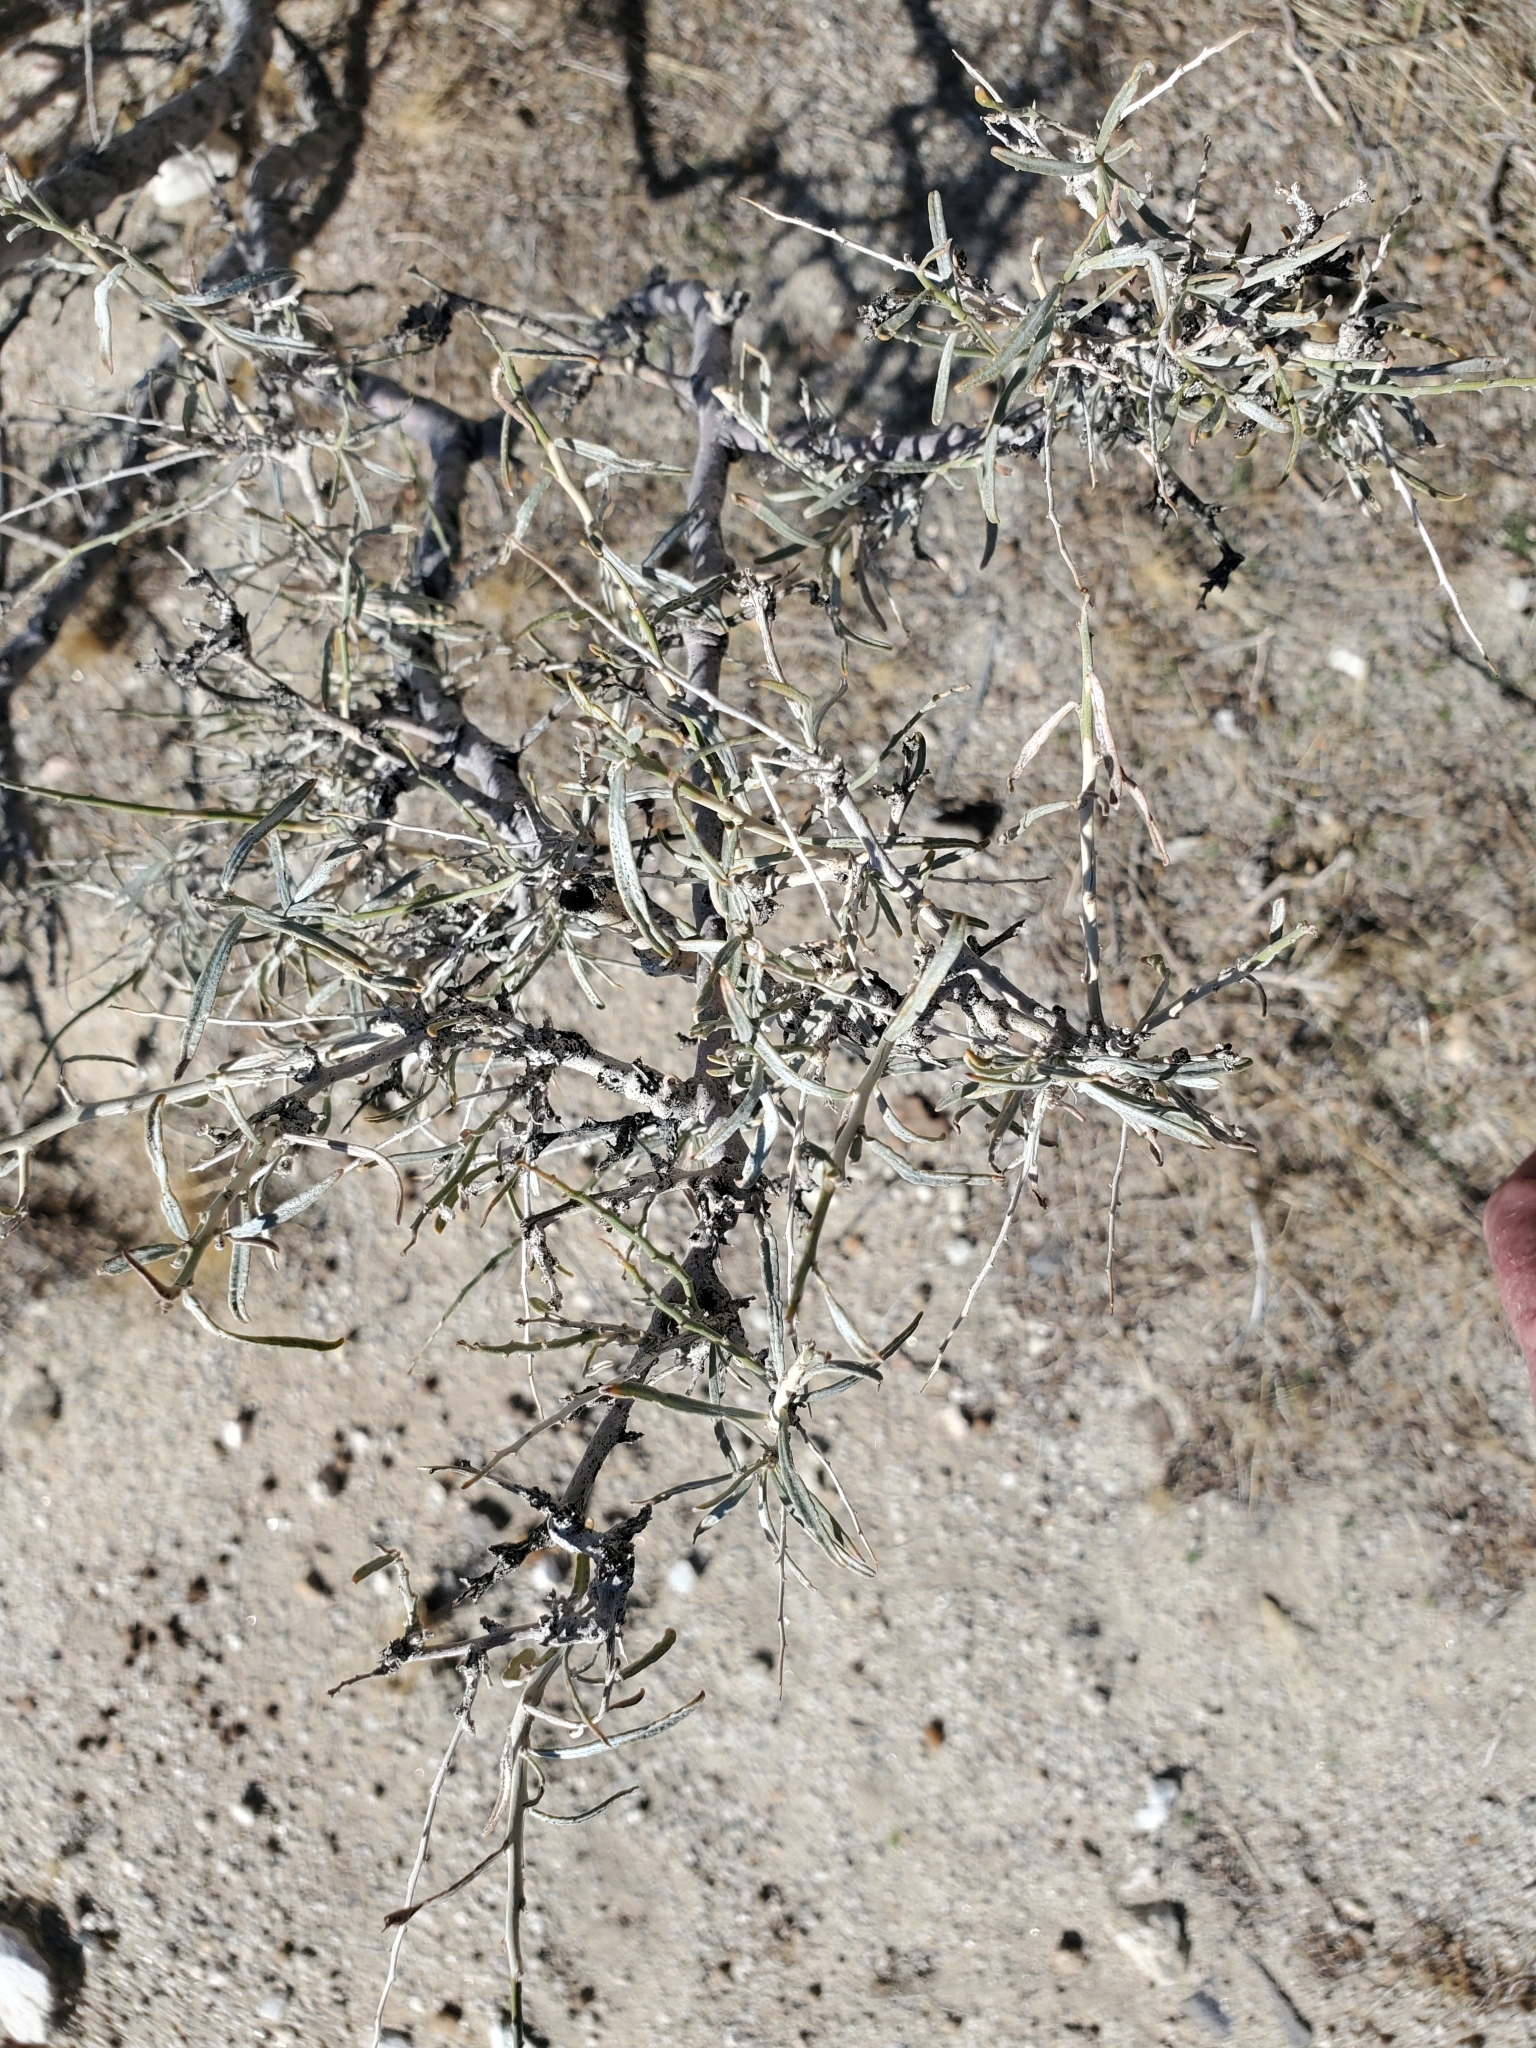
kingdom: Plantae
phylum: Tracheophyta
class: Magnoliopsida
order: Fabales
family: Fabaceae
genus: Psorothamnus
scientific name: Psorothamnus schottii
